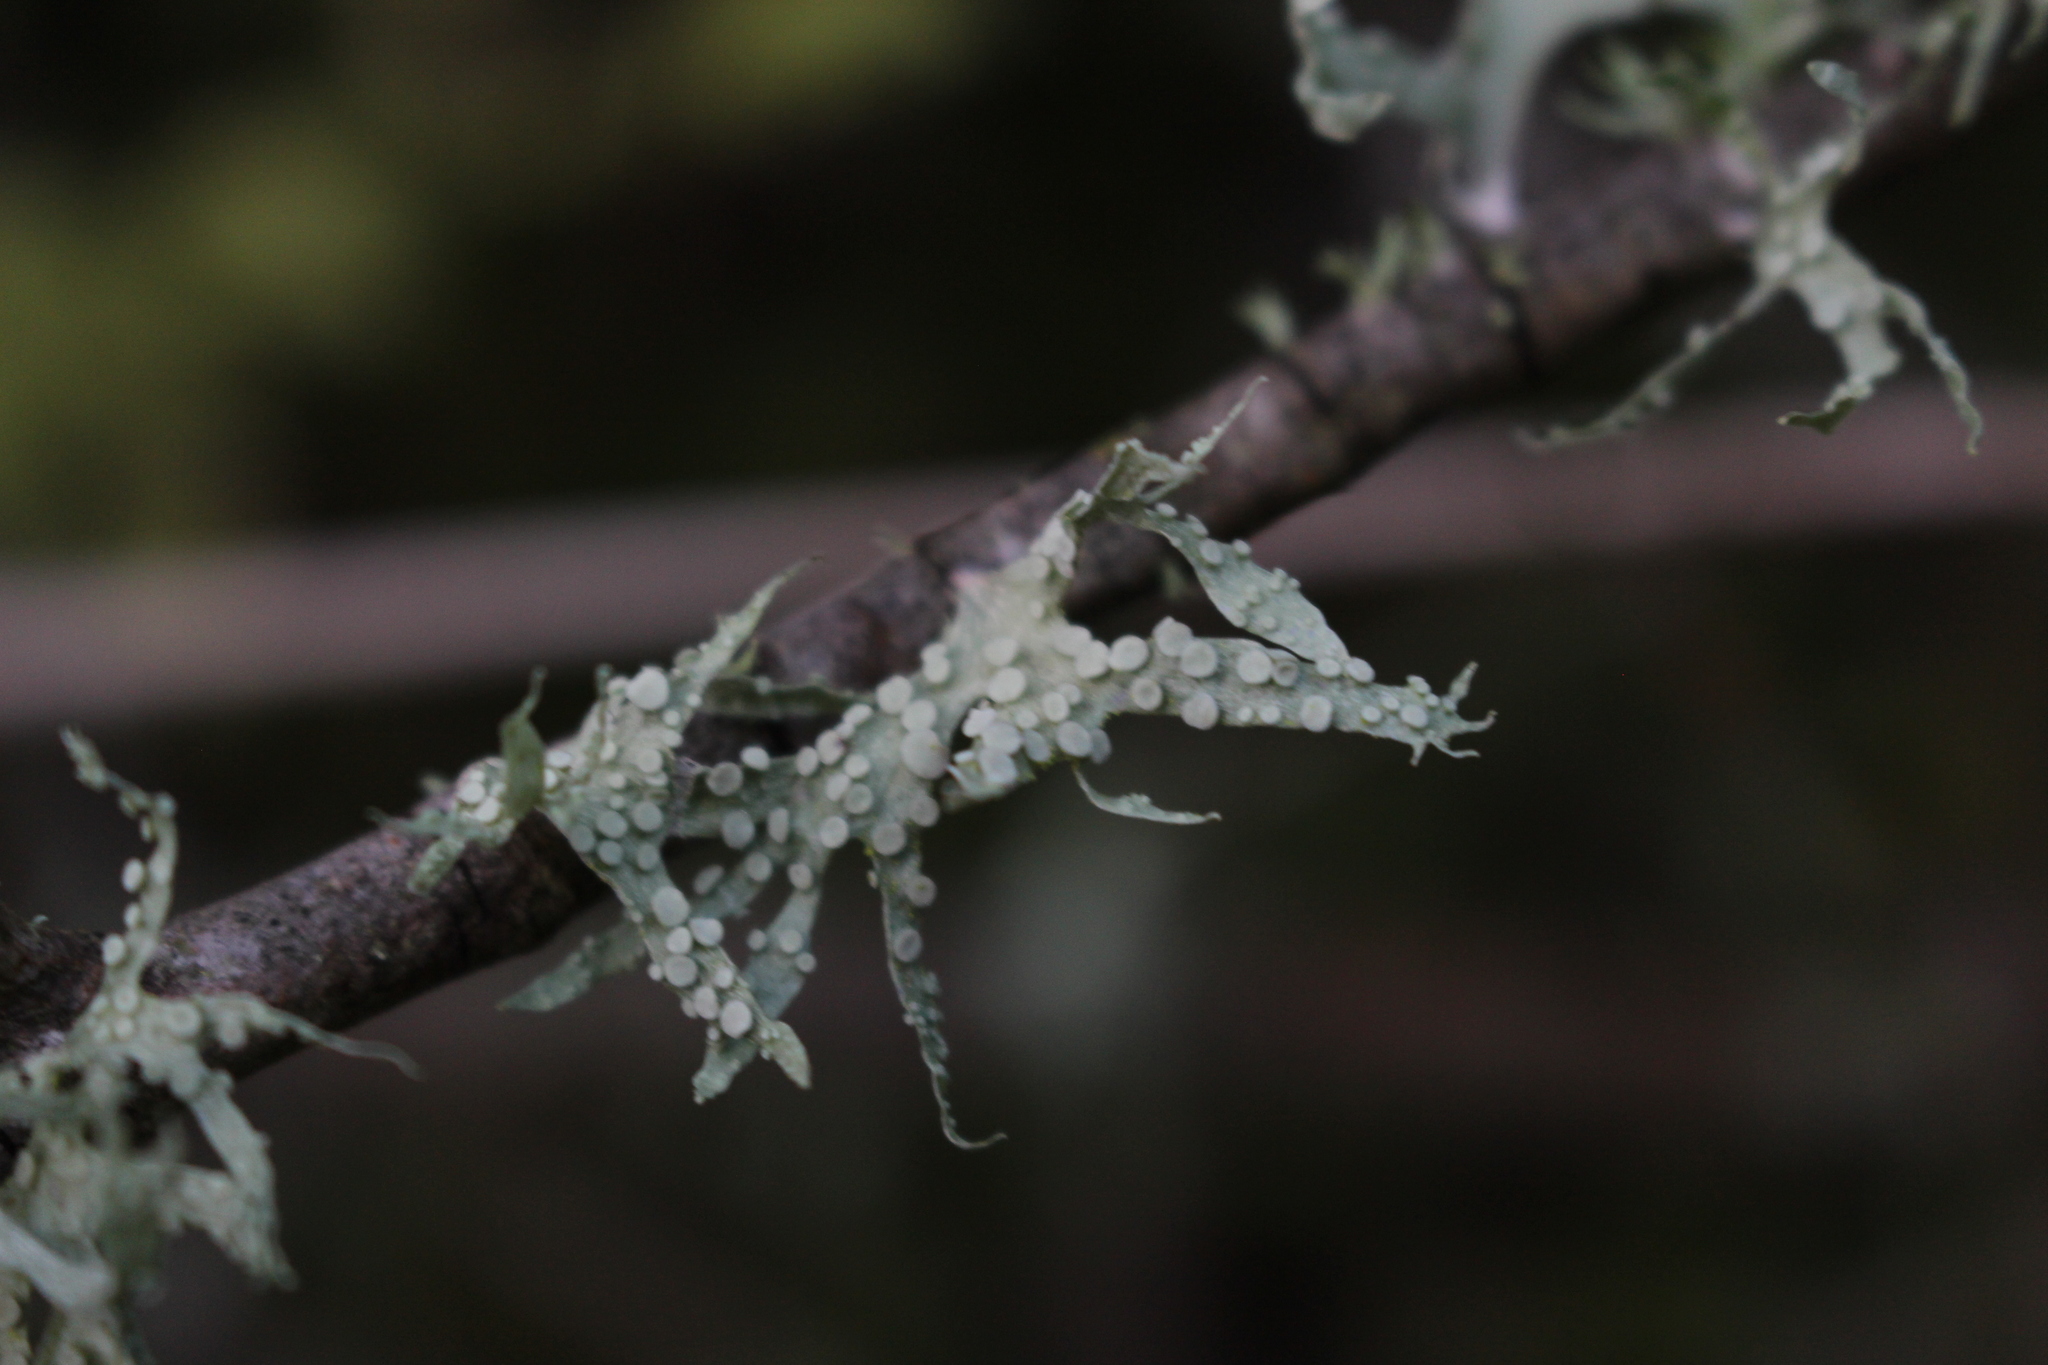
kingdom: Fungi
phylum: Ascomycota
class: Lecanoromycetes
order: Lecanorales
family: Ramalinaceae
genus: Ramalina
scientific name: Ramalina celastri
